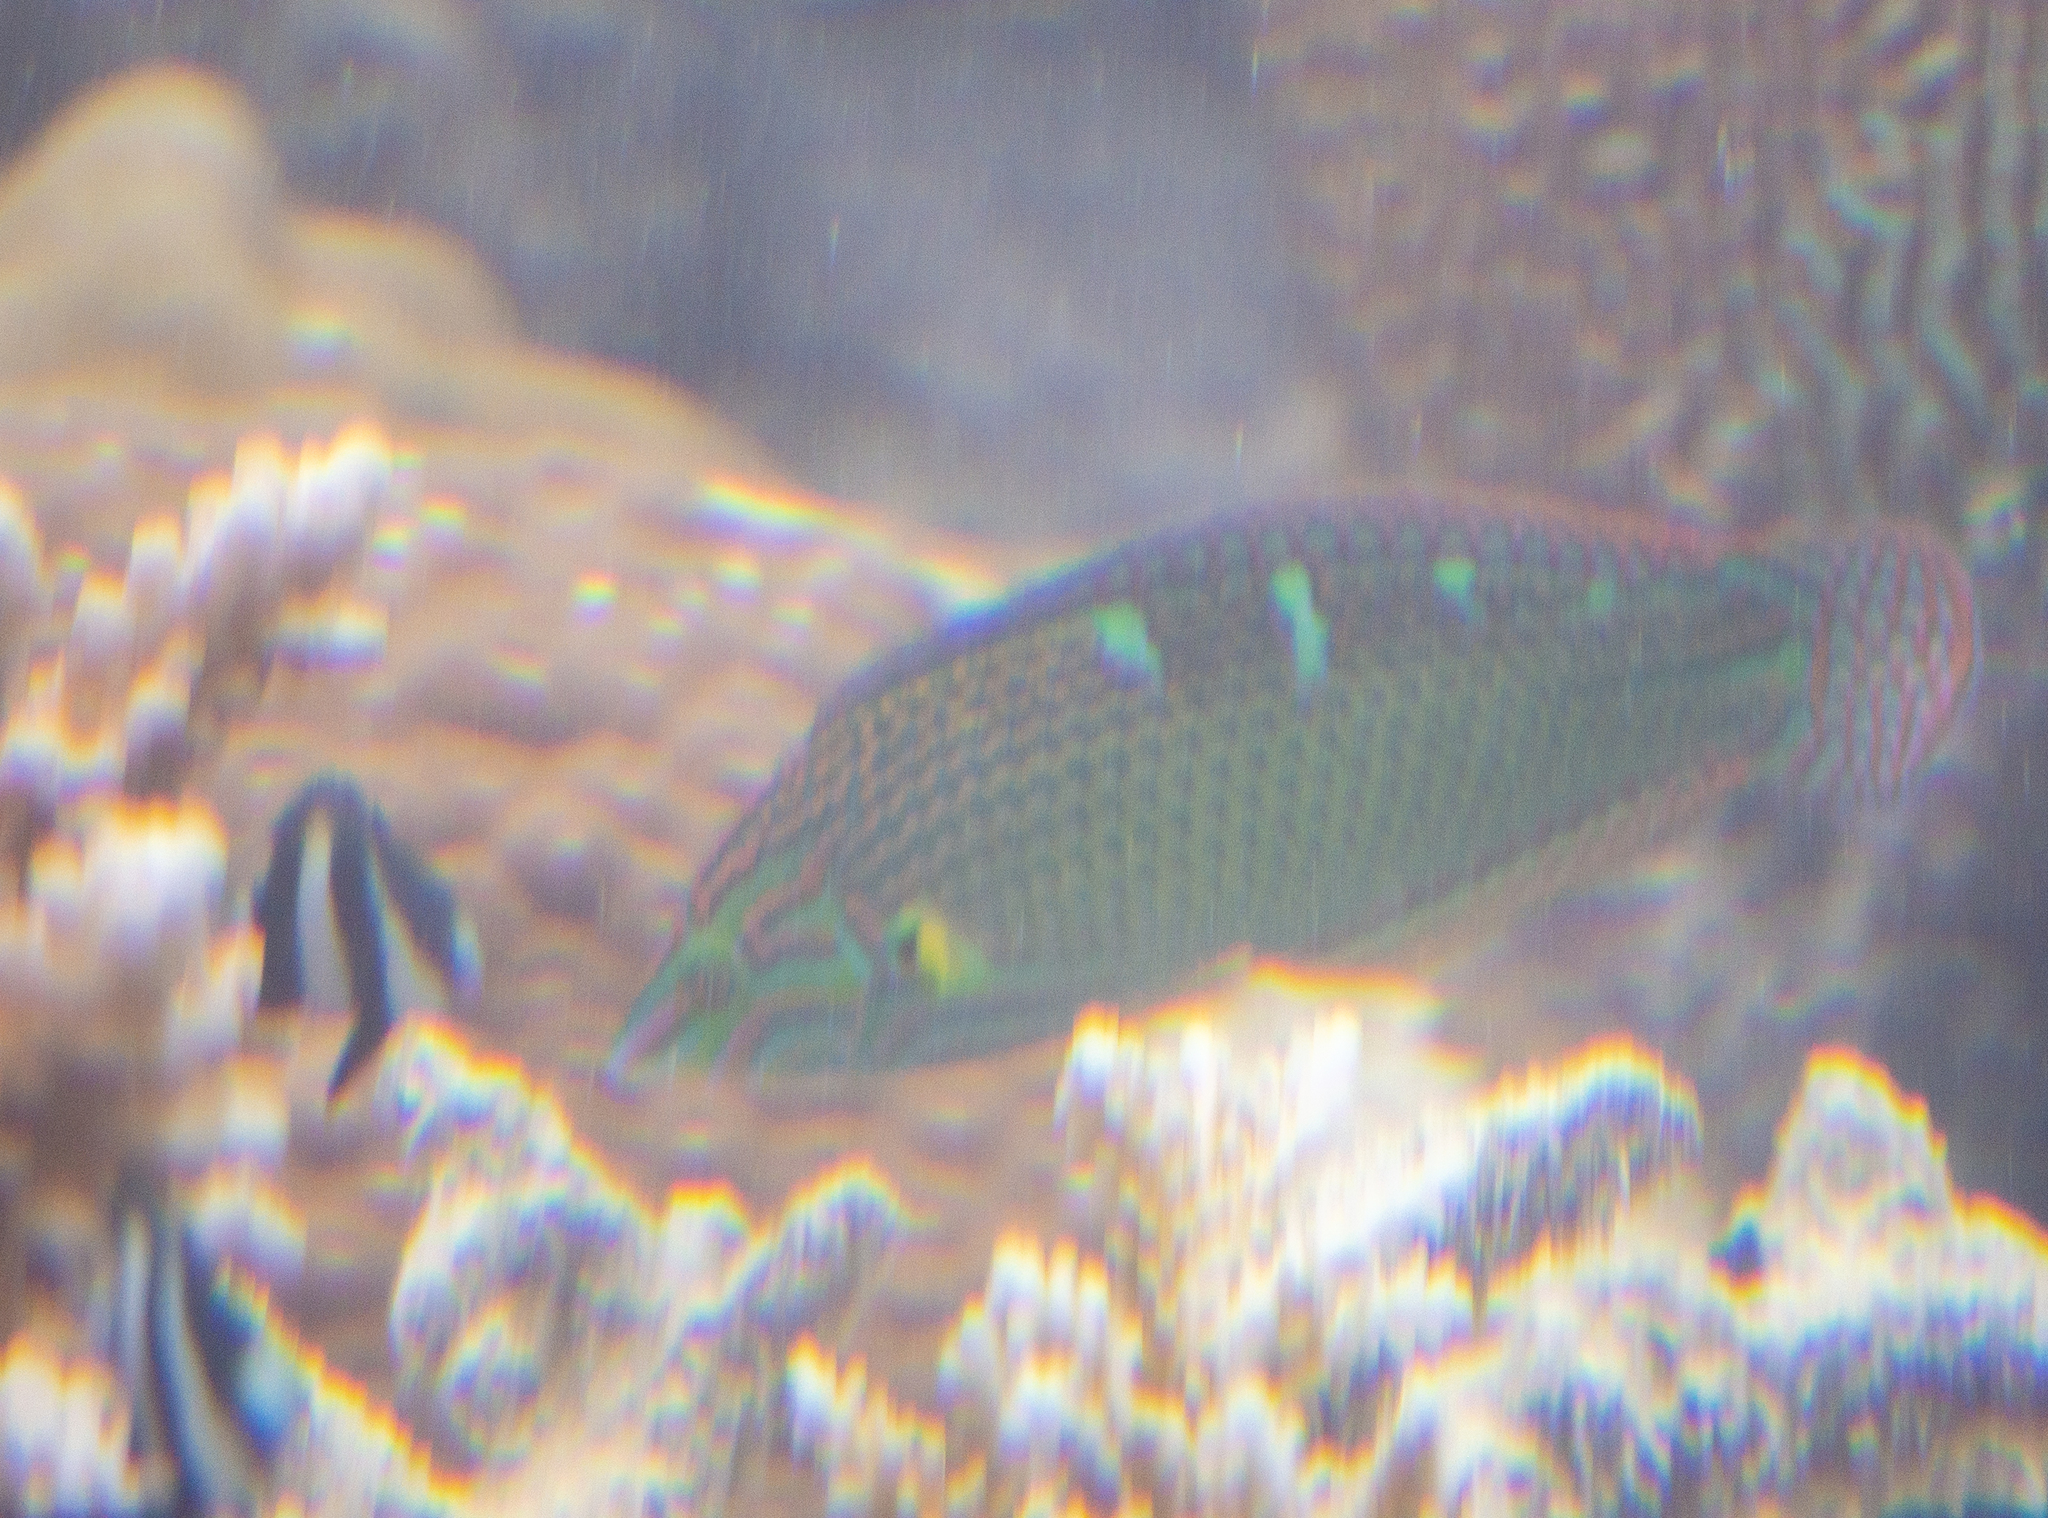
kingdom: Animalia
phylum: Chordata
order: Perciformes
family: Labridae
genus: Halichoeres
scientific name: Halichoeres melanurus
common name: Hoeven's wrasse
